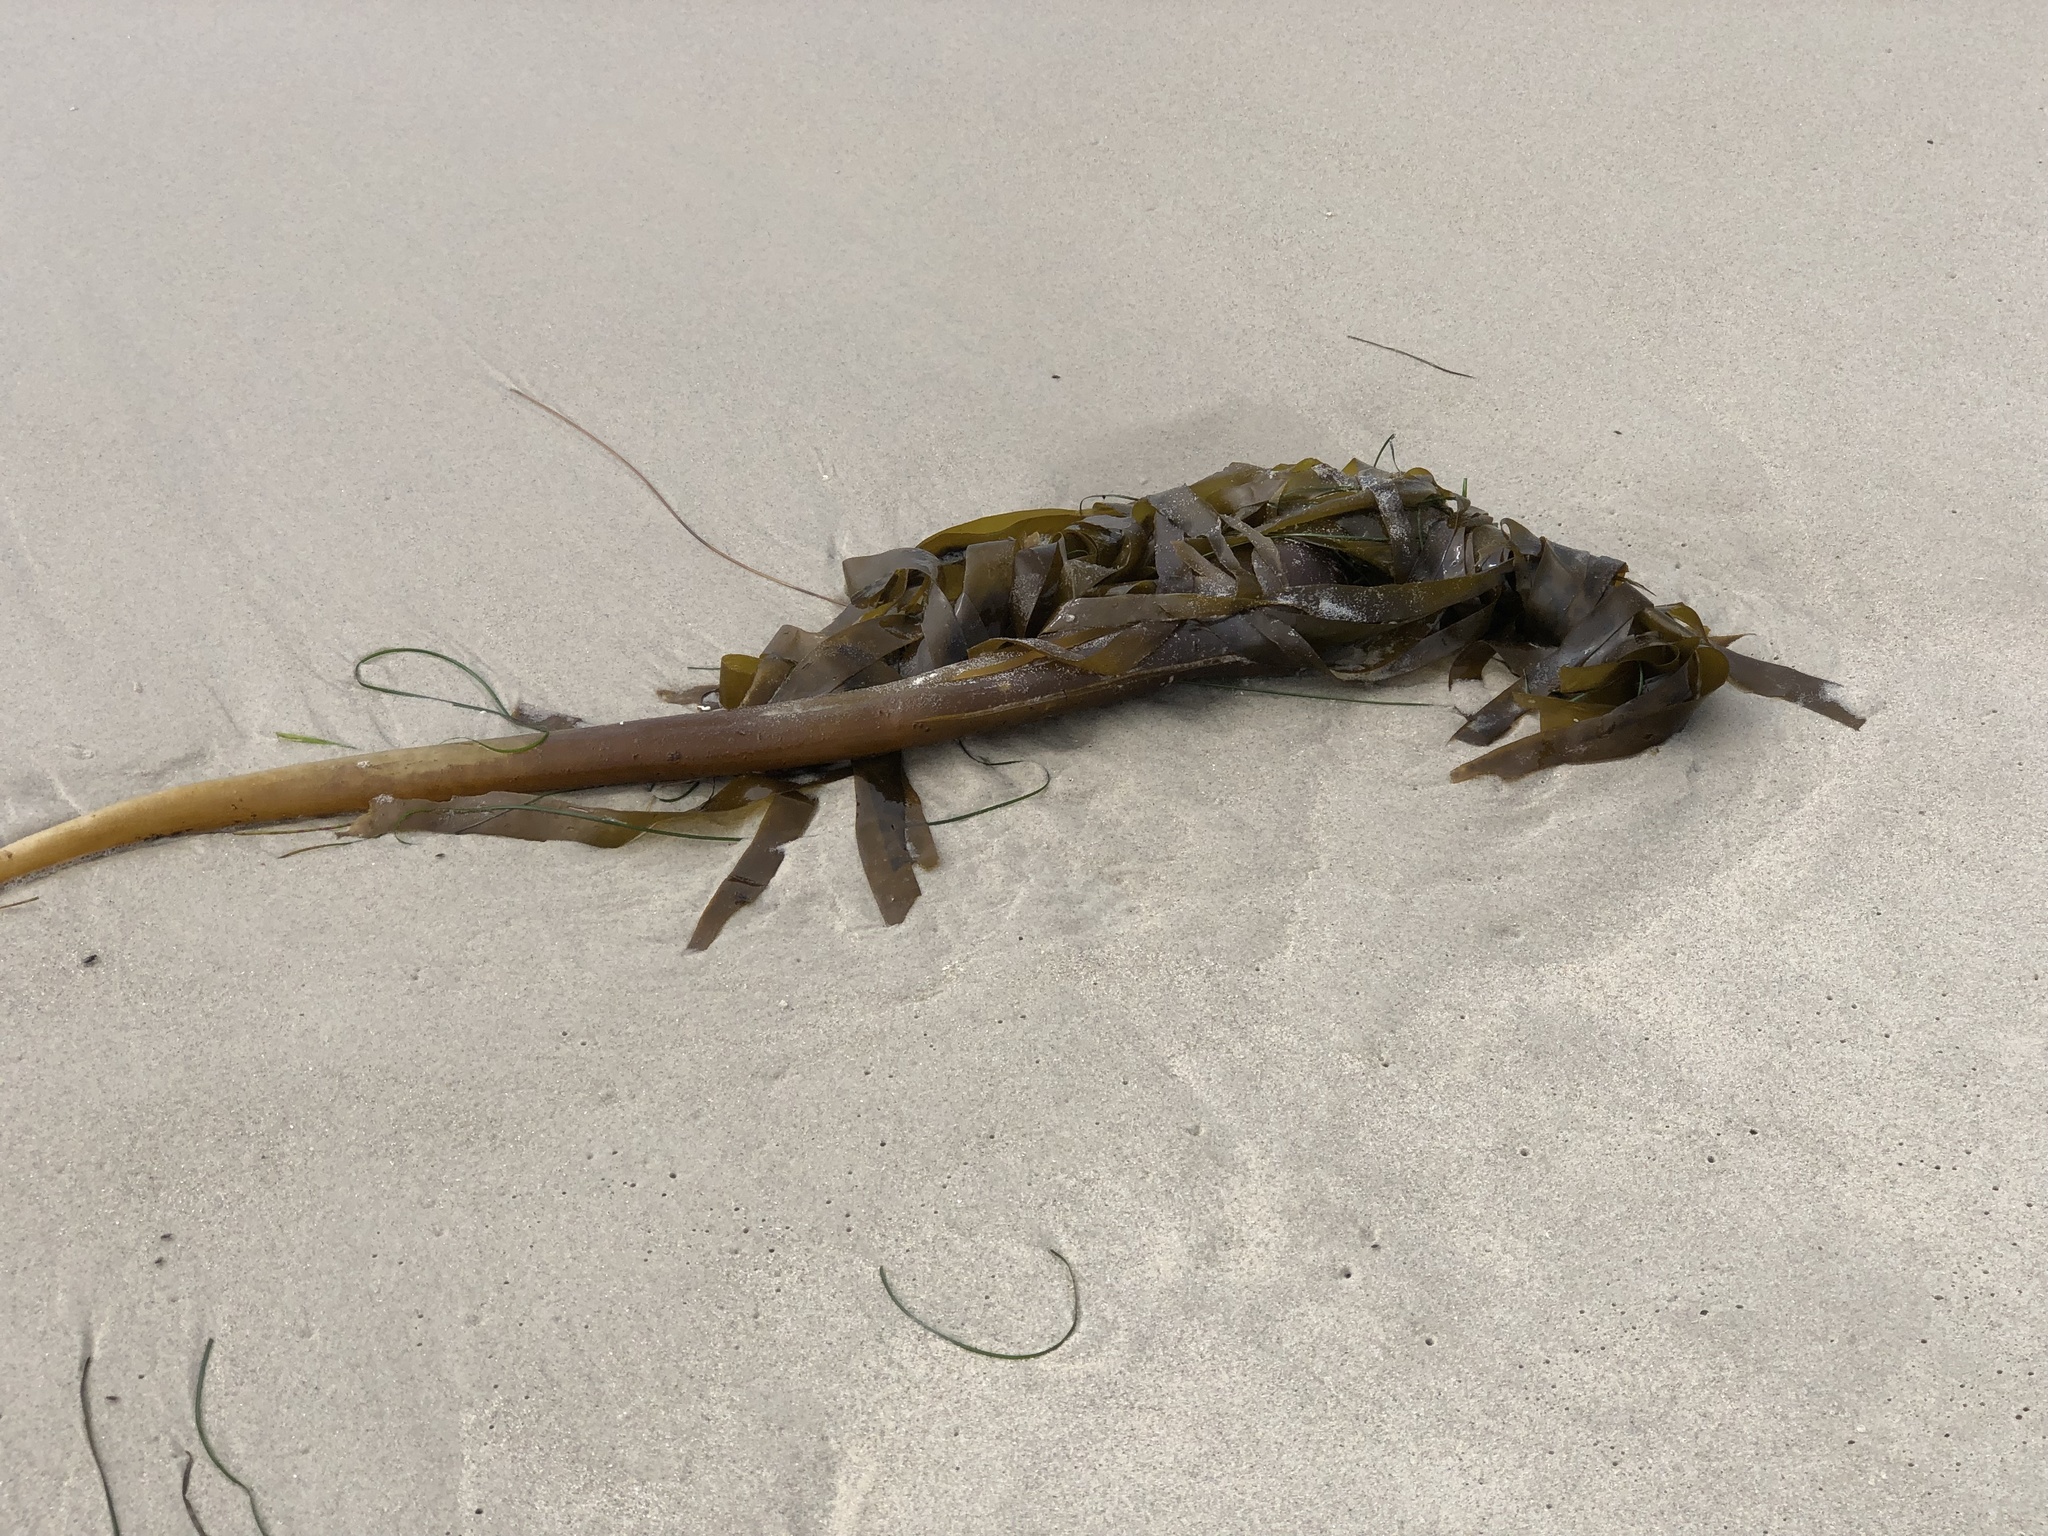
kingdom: Chromista
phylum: Ochrophyta
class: Phaeophyceae
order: Laminariales
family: Laminariaceae
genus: Nereocystis
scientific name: Nereocystis luetkeana
